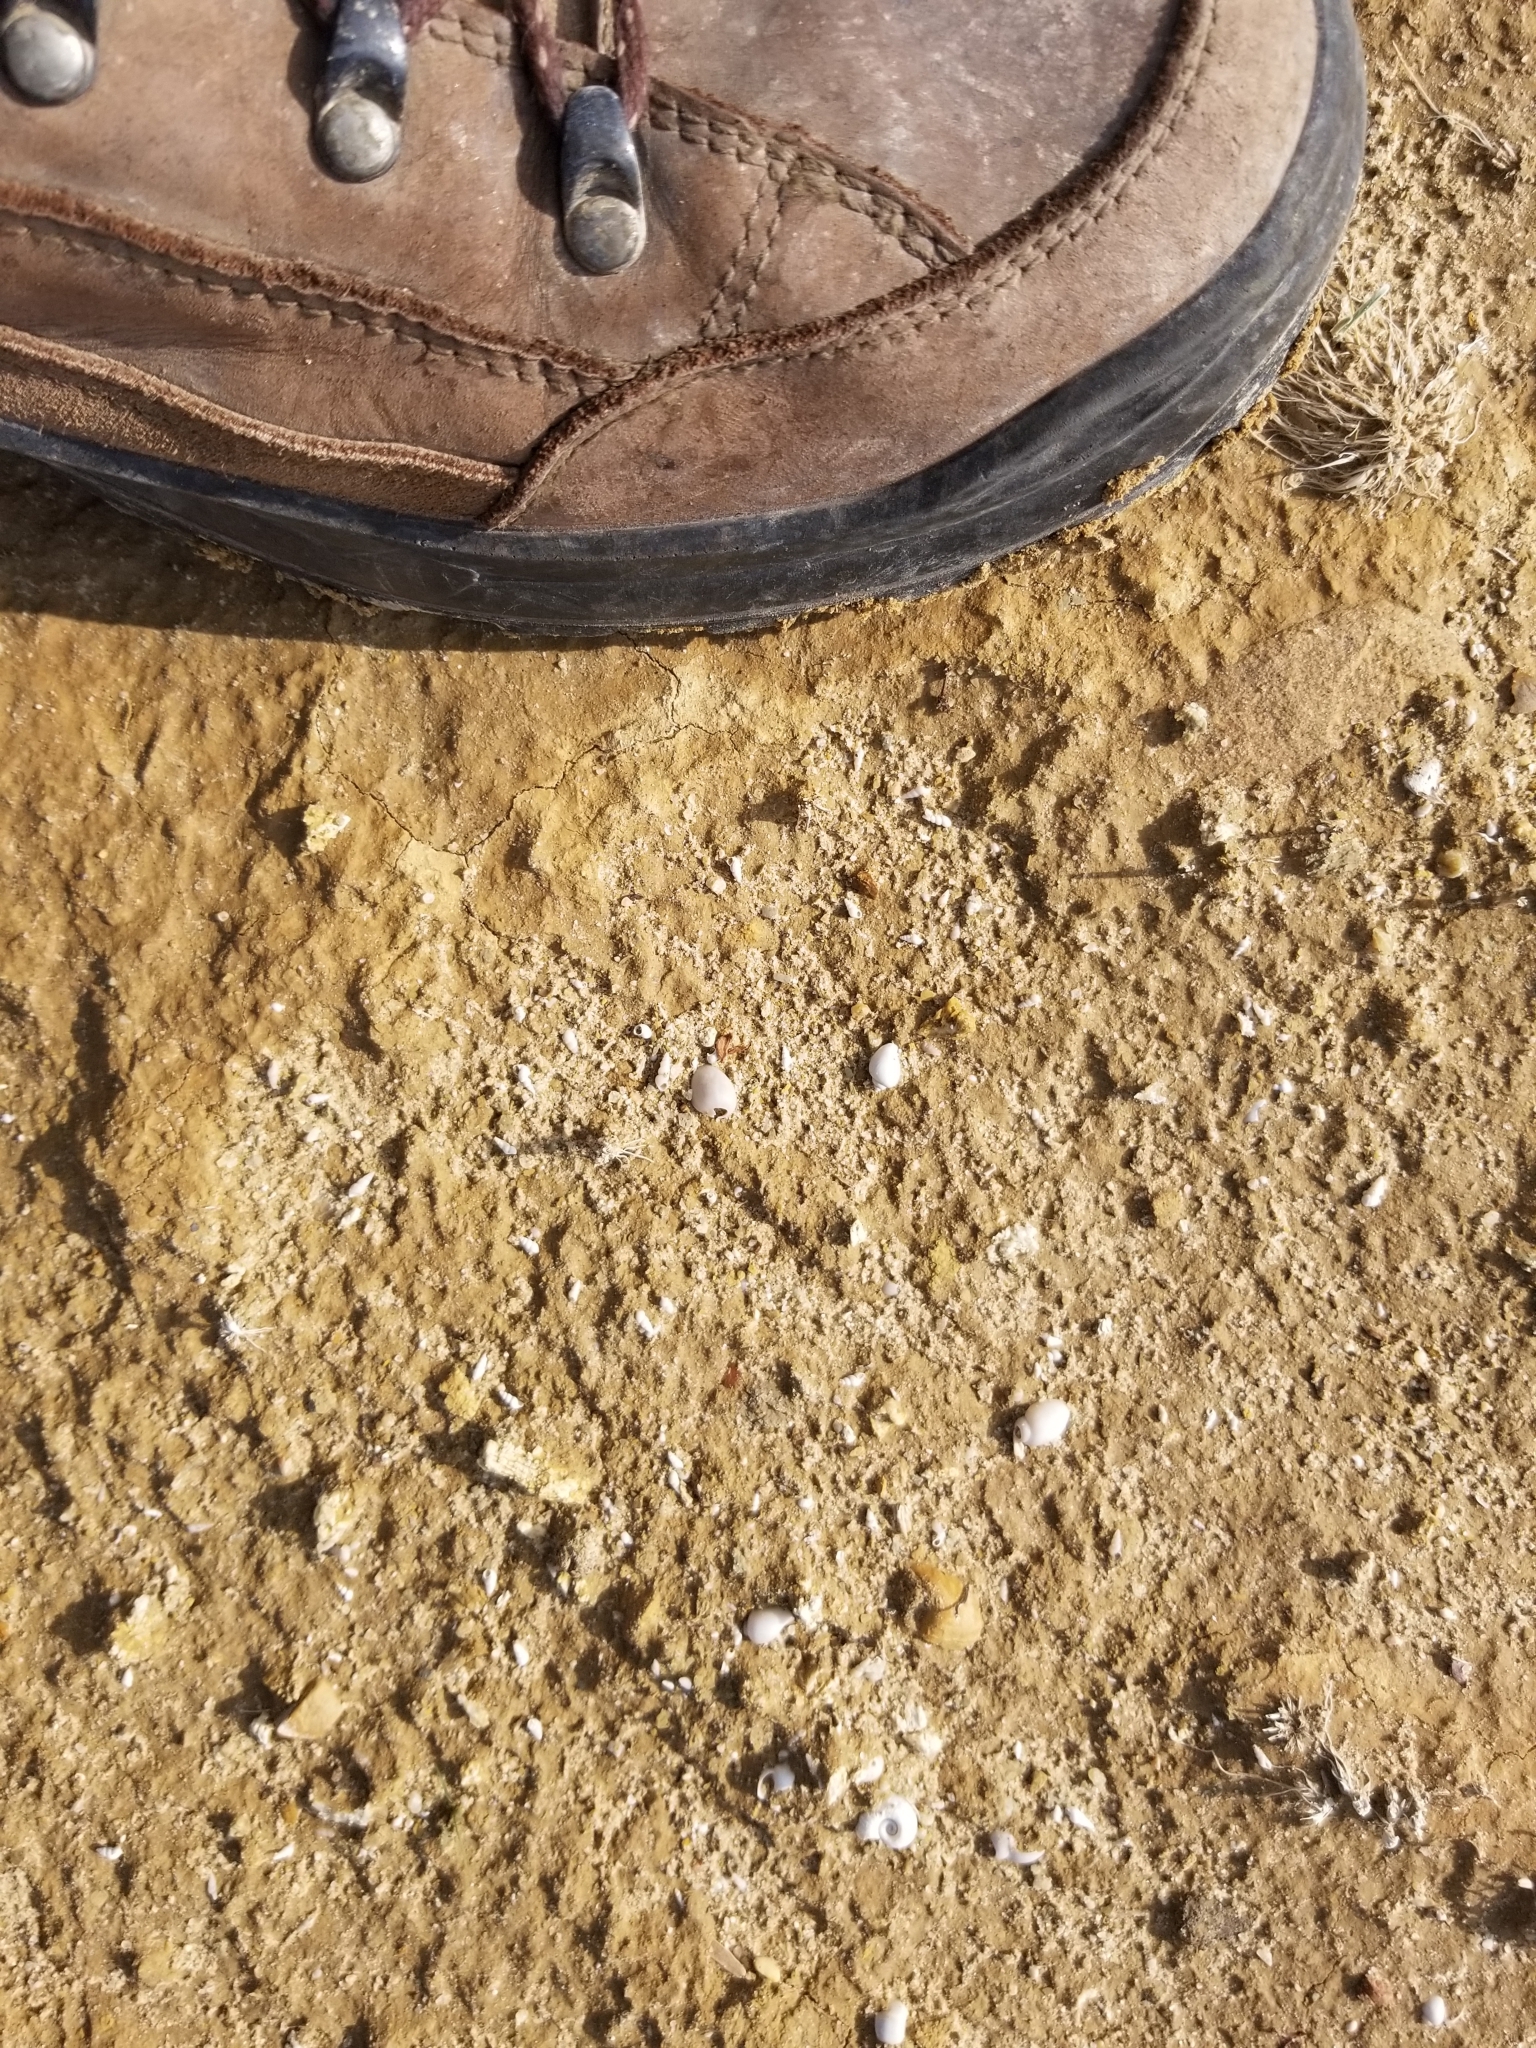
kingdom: Animalia
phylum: Mollusca
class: Gastropoda
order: Littorinimorpha
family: Cochliopidae
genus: Tryonia
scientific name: Tryonia porrecta
